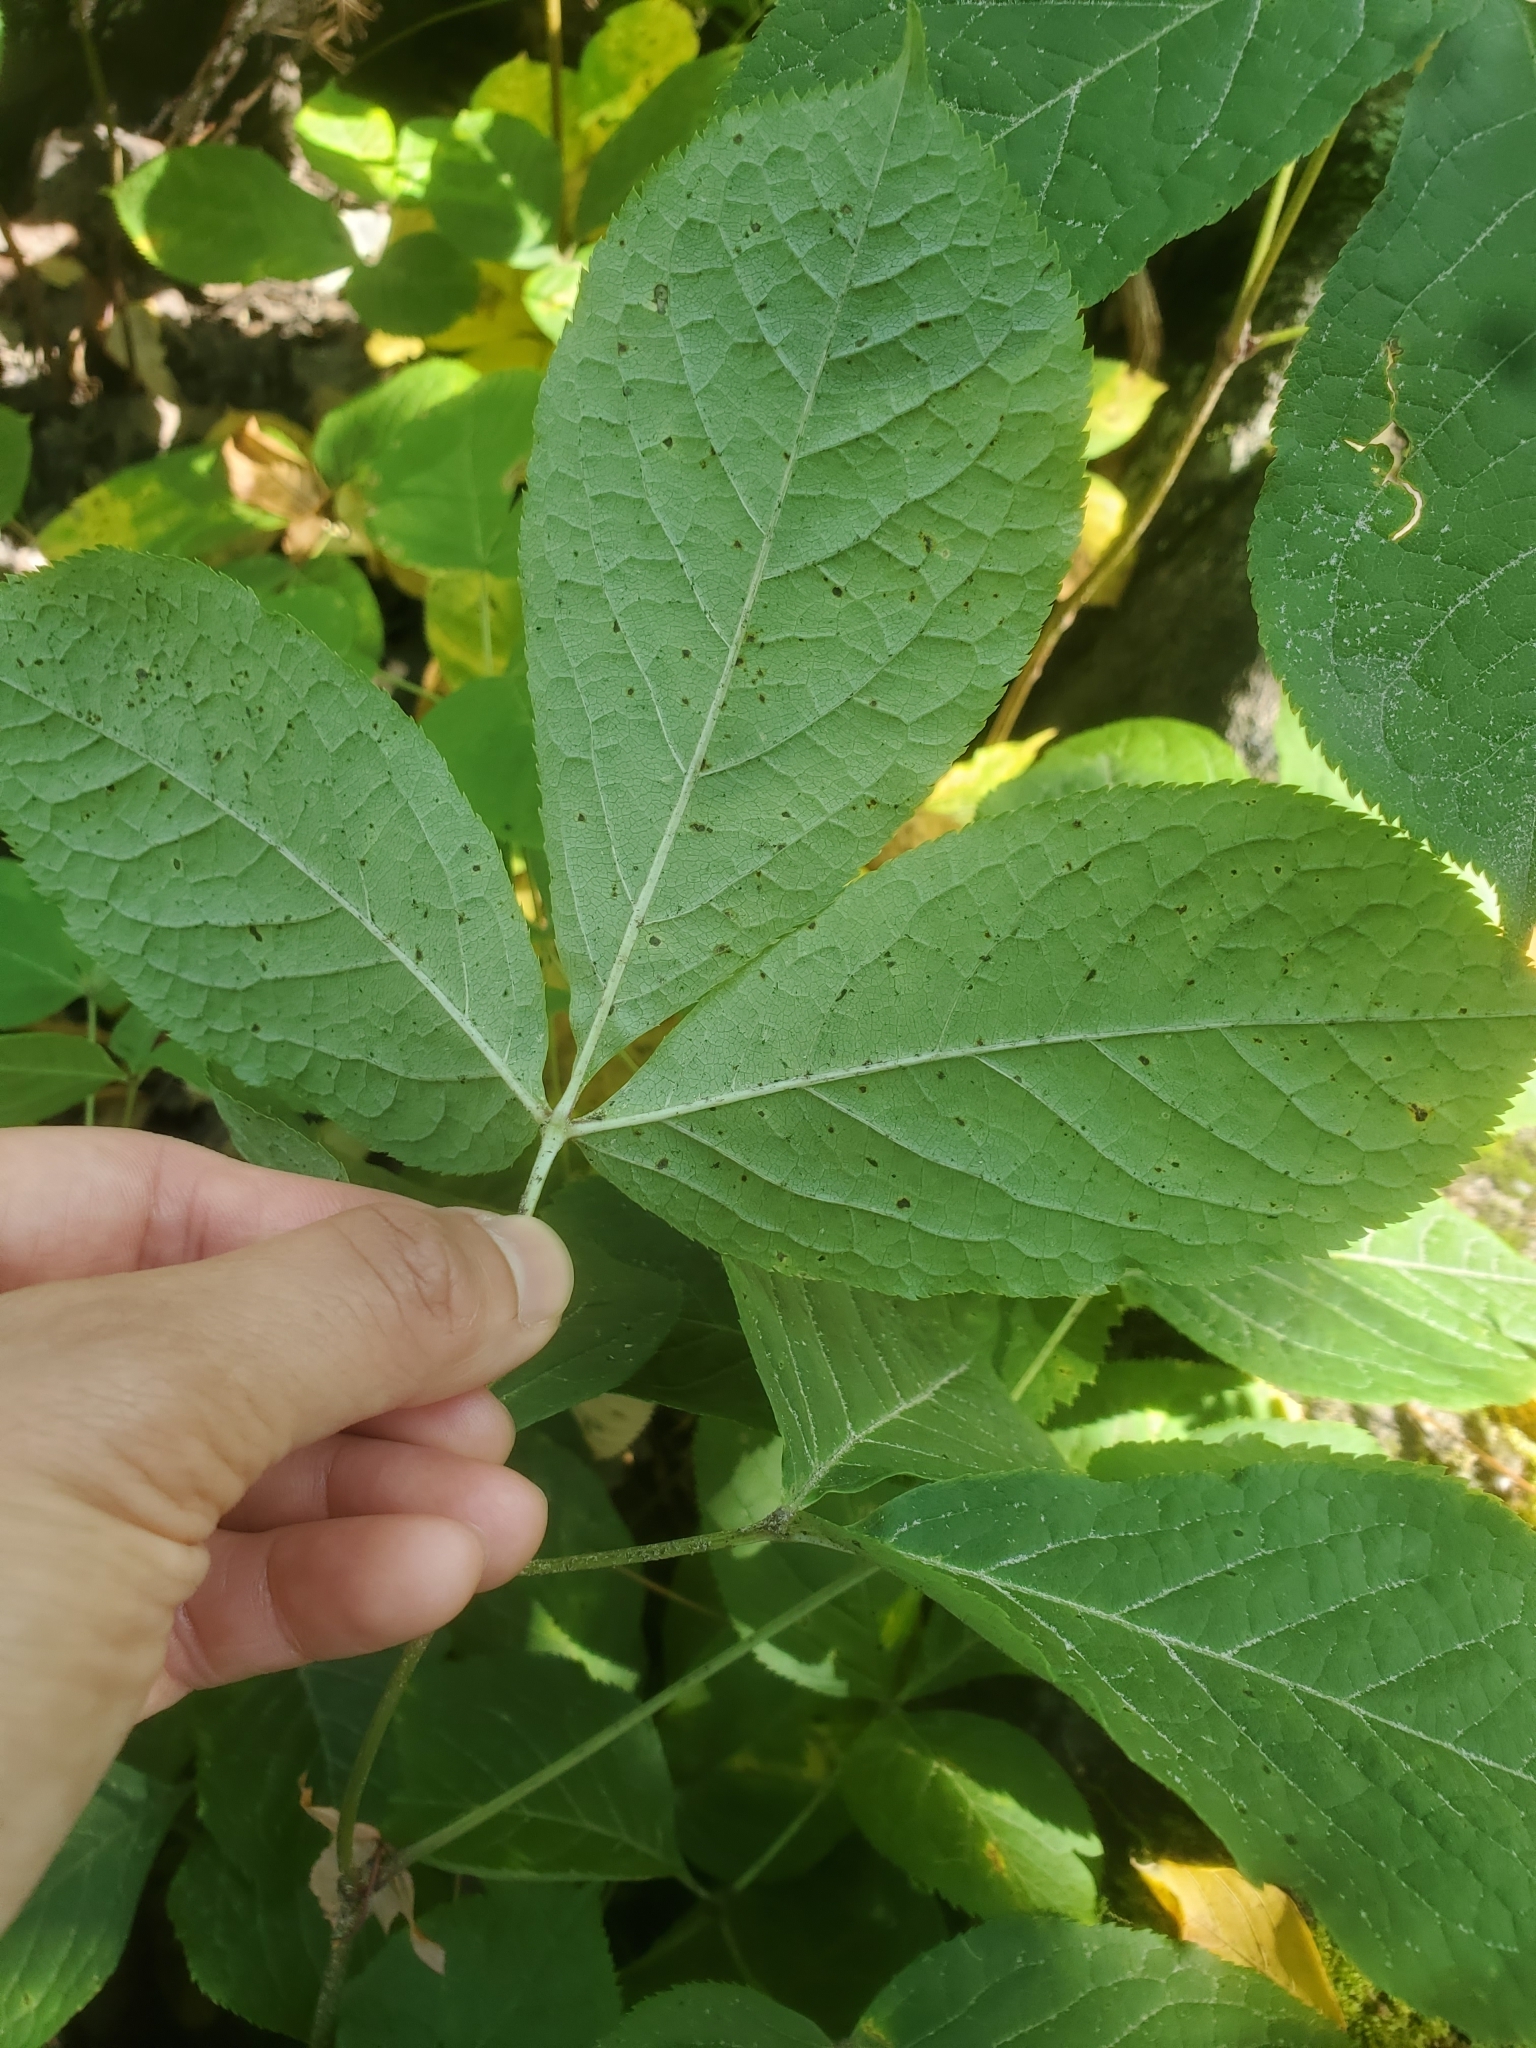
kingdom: Plantae
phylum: Tracheophyta
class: Magnoliopsida
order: Apiales
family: Araliaceae
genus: Aralia
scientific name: Aralia nudicaulis
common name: Wild sarsaparilla
